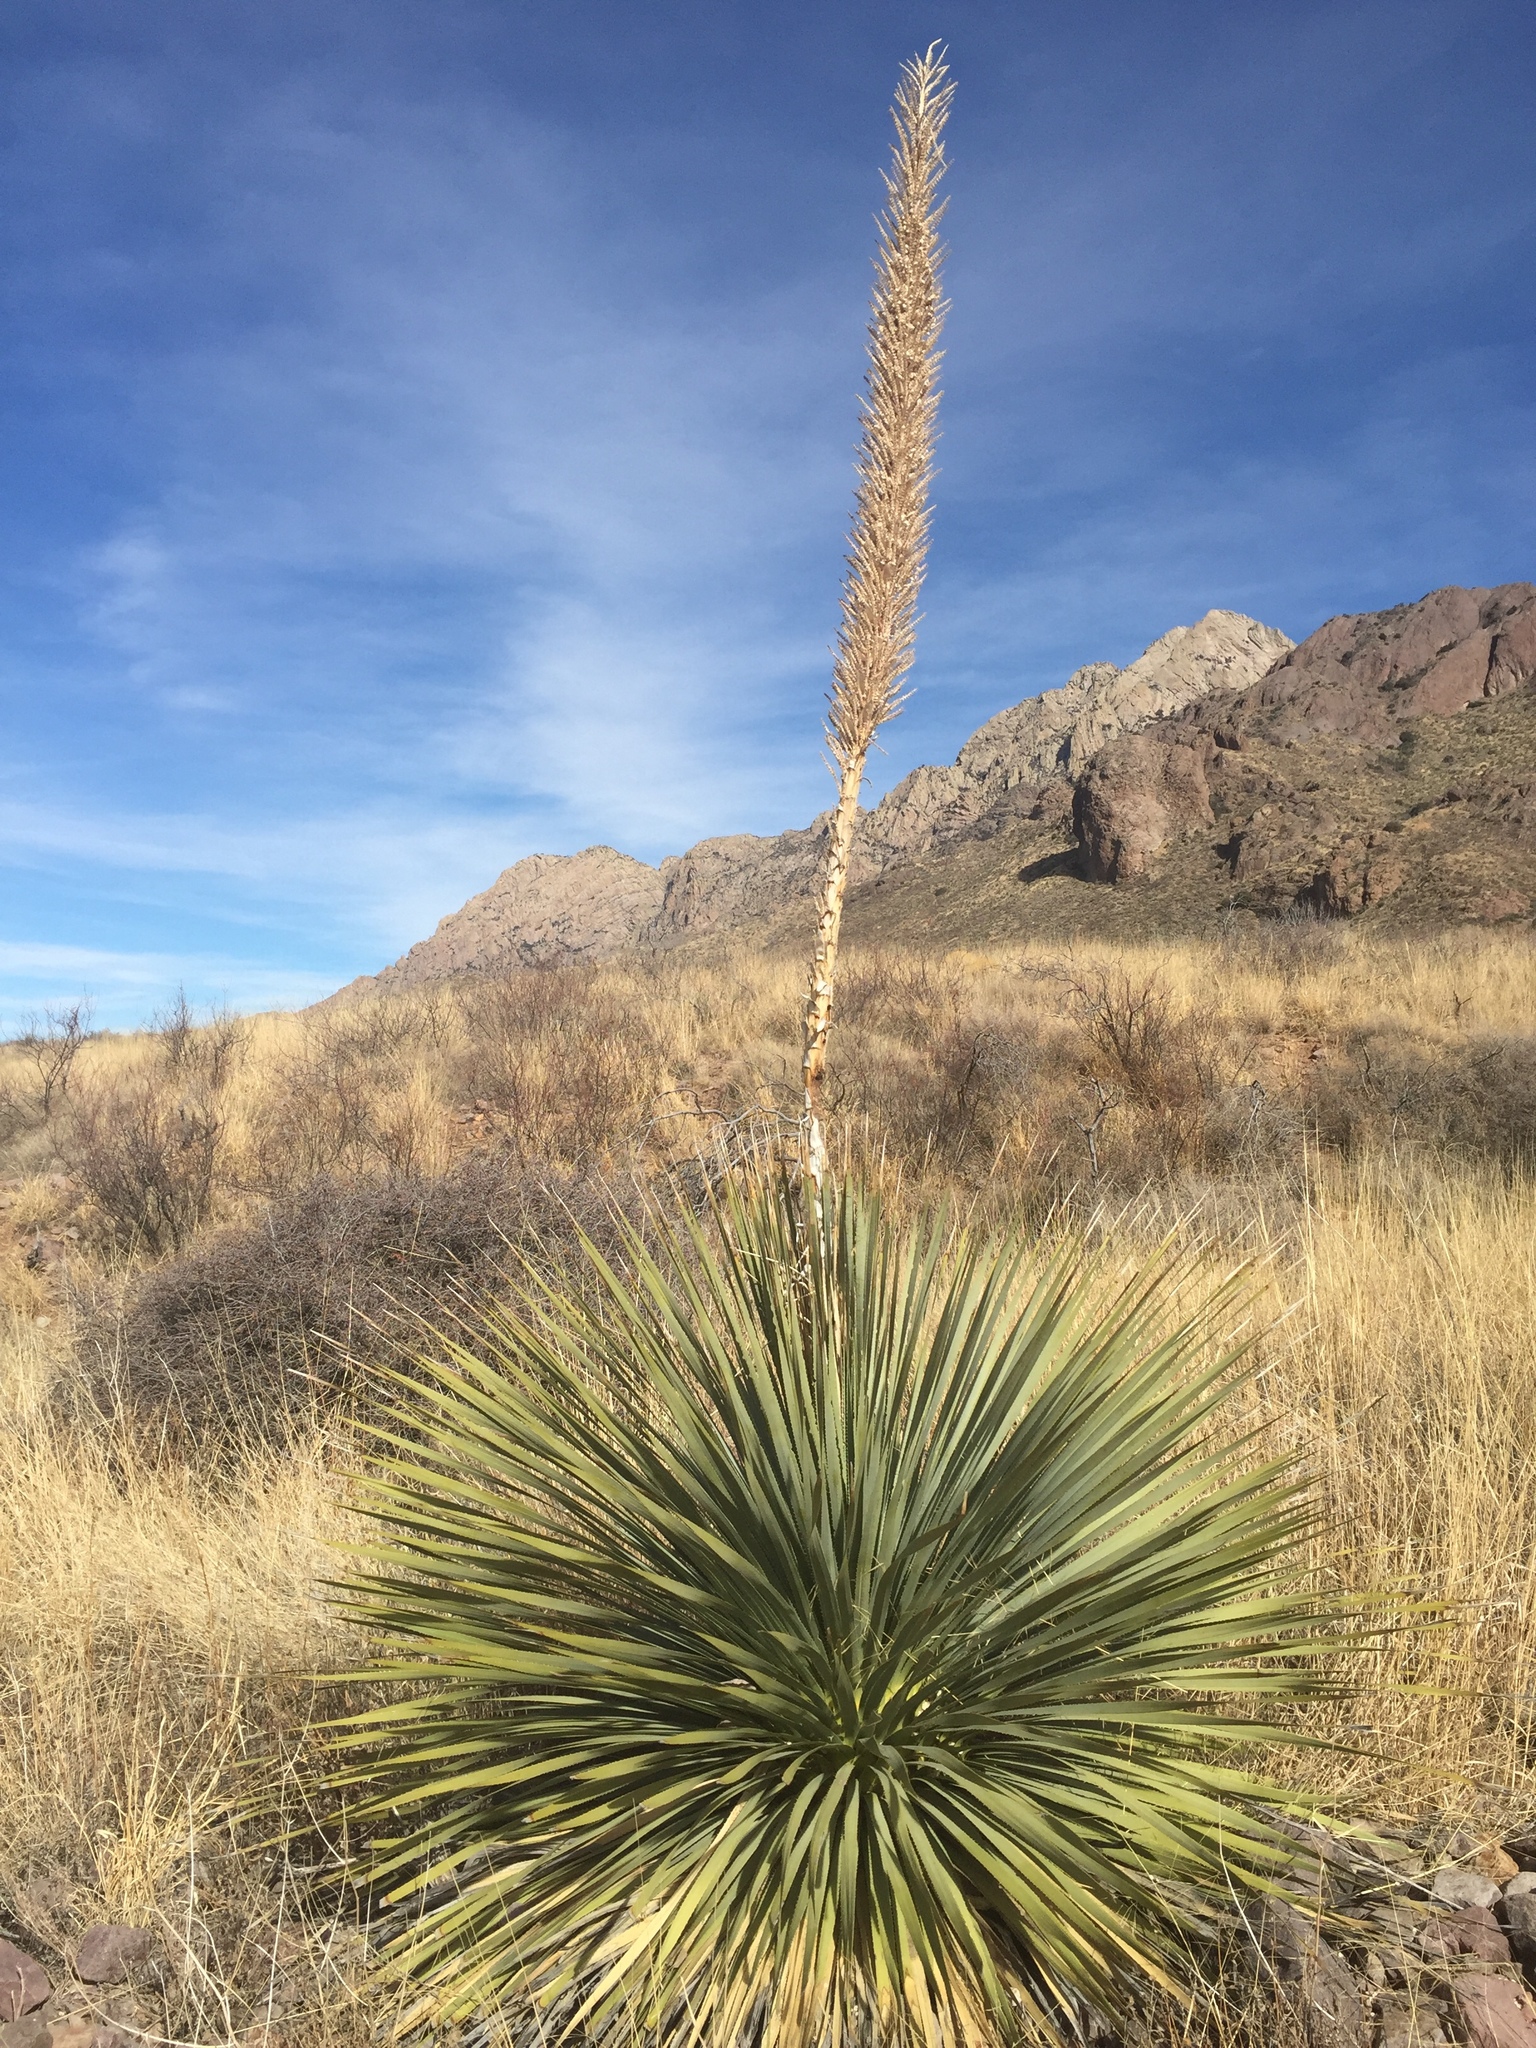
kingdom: Plantae
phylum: Tracheophyta
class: Liliopsida
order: Asparagales
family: Asparagaceae
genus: Dasylirion
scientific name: Dasylirion wheeleri
